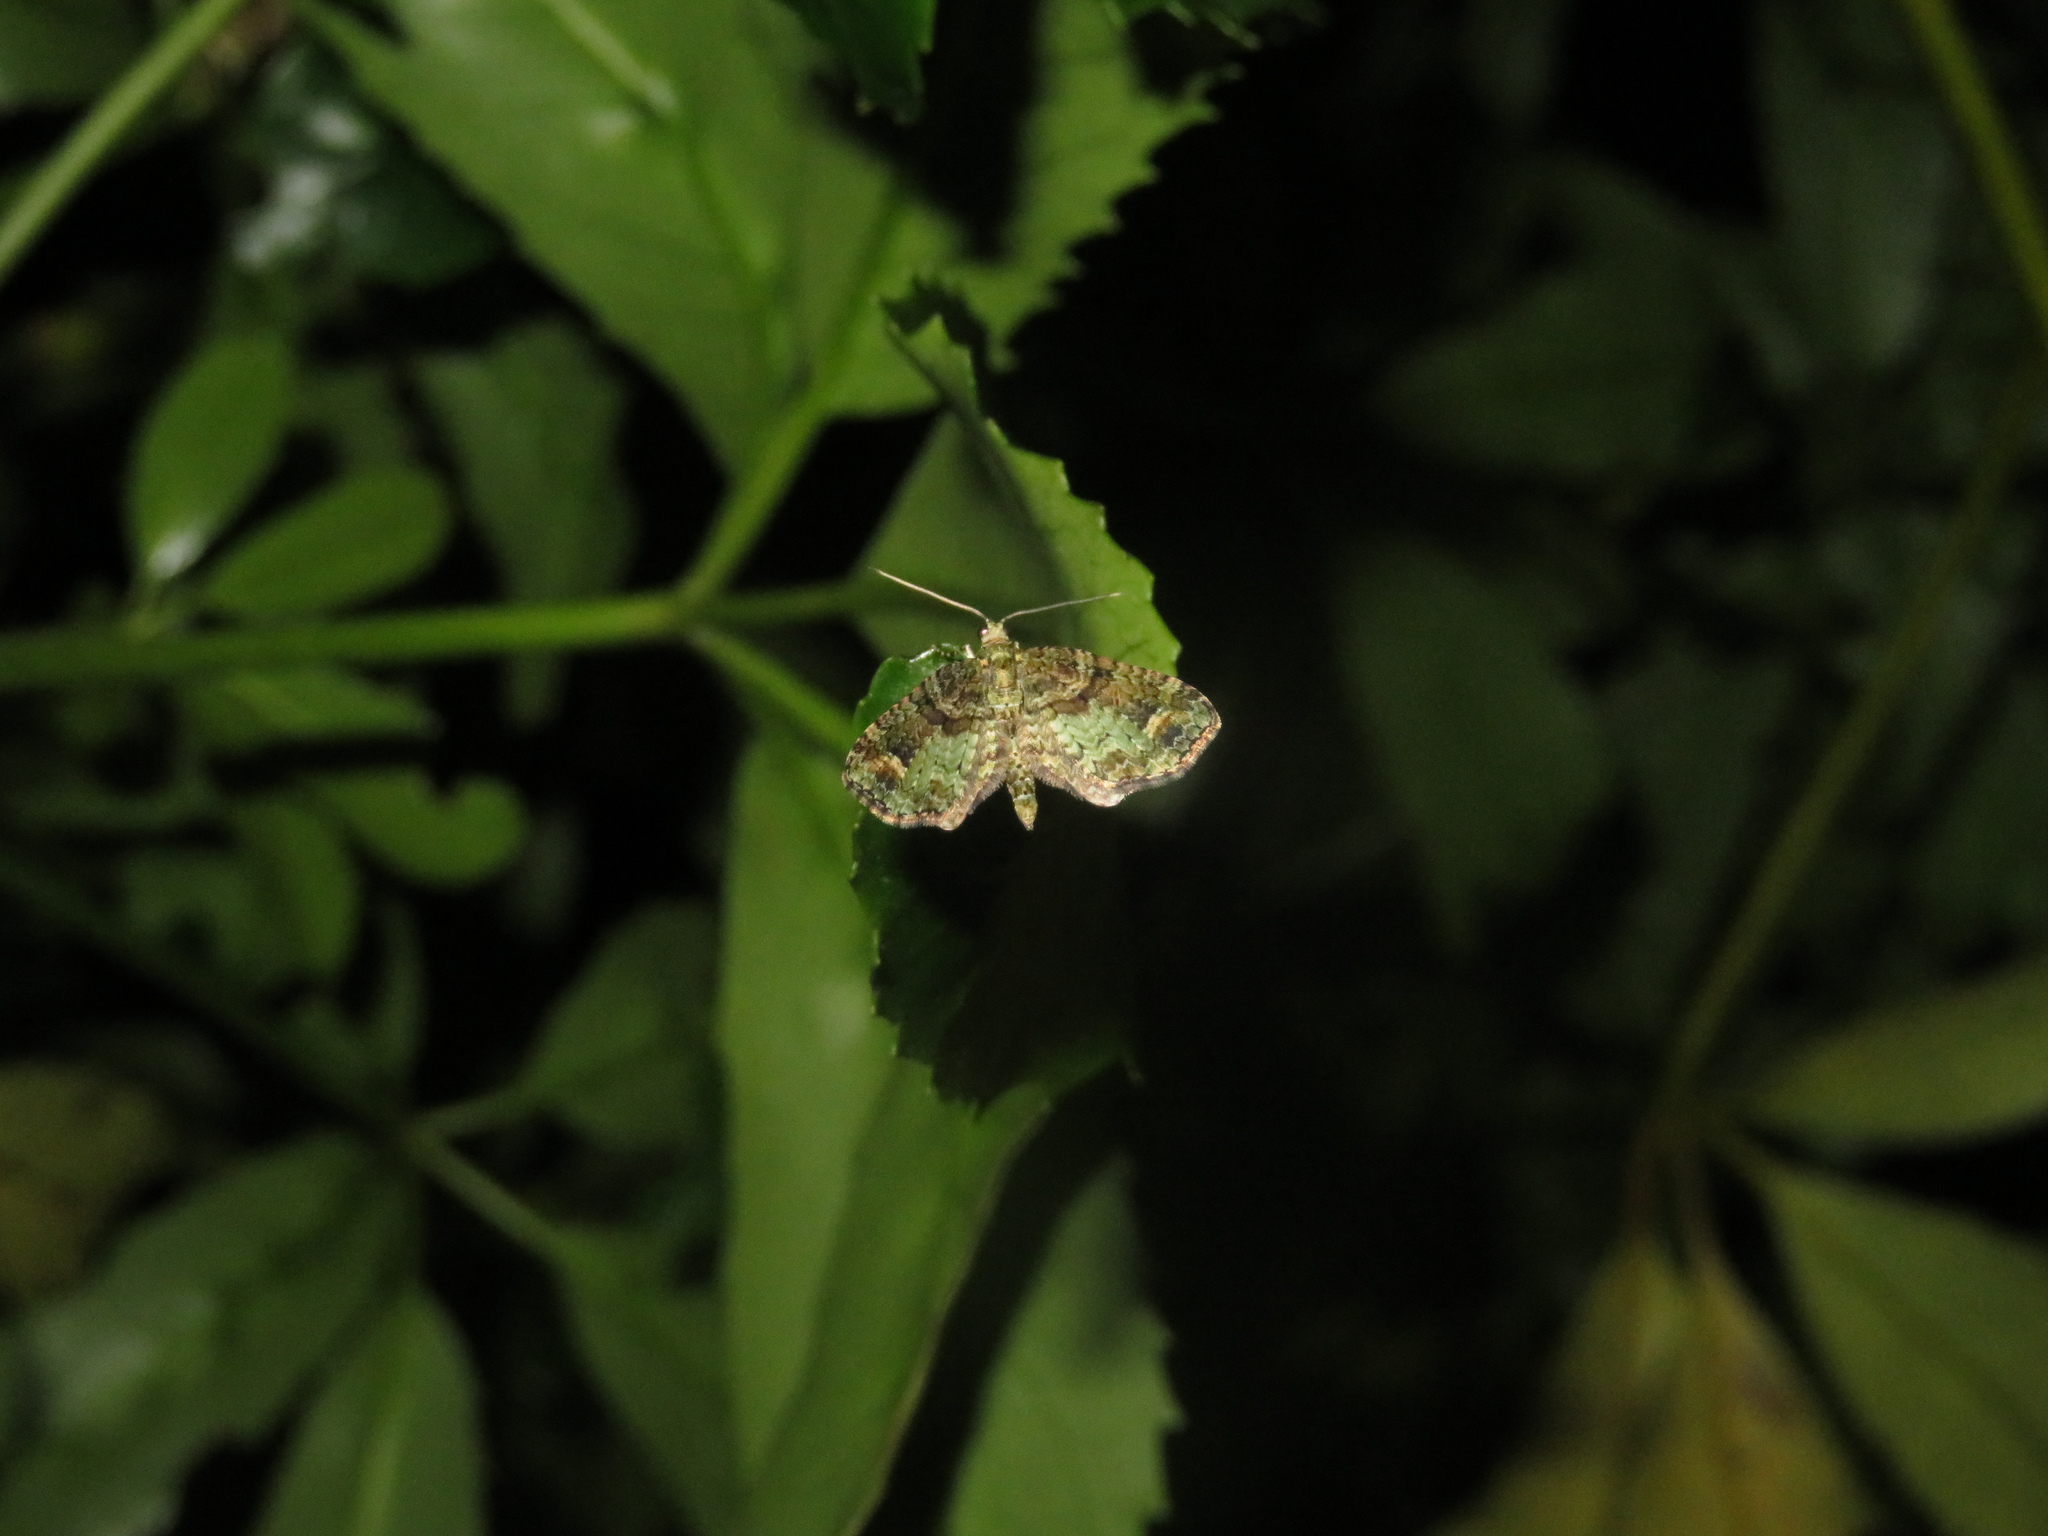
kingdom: Animalia
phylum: Arthropoda
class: Insecta
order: Lepidoptera
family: Geometridae
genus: Idaea
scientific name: Idaea mutanda
